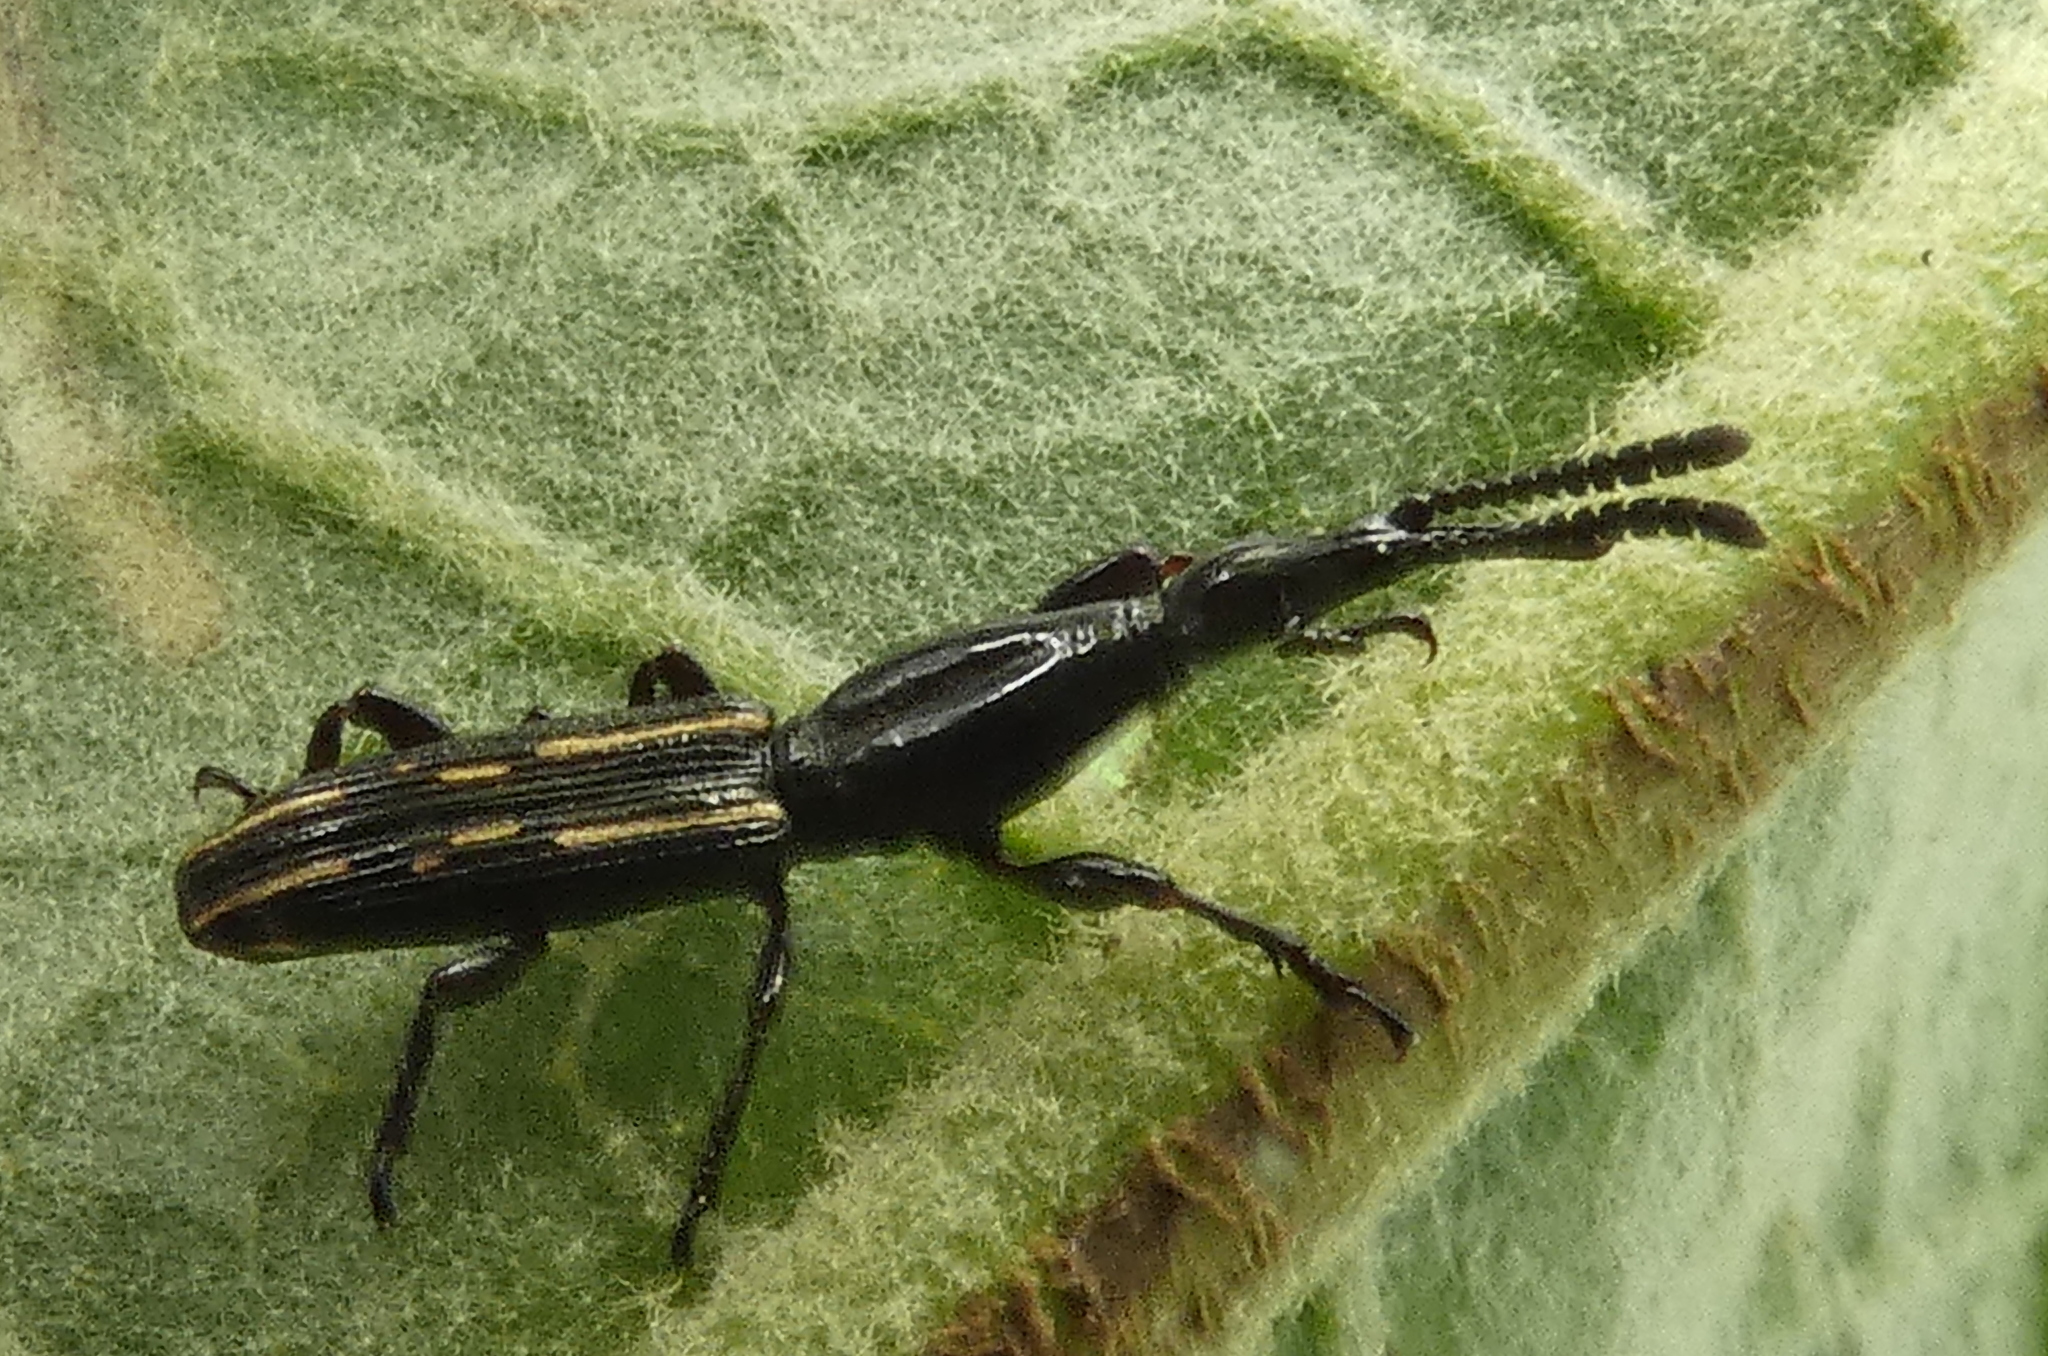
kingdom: Animalia
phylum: Arthropoda
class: Insecta
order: Coleoptera
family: Brentidae
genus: Brentus
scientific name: Brentus cylindrus
